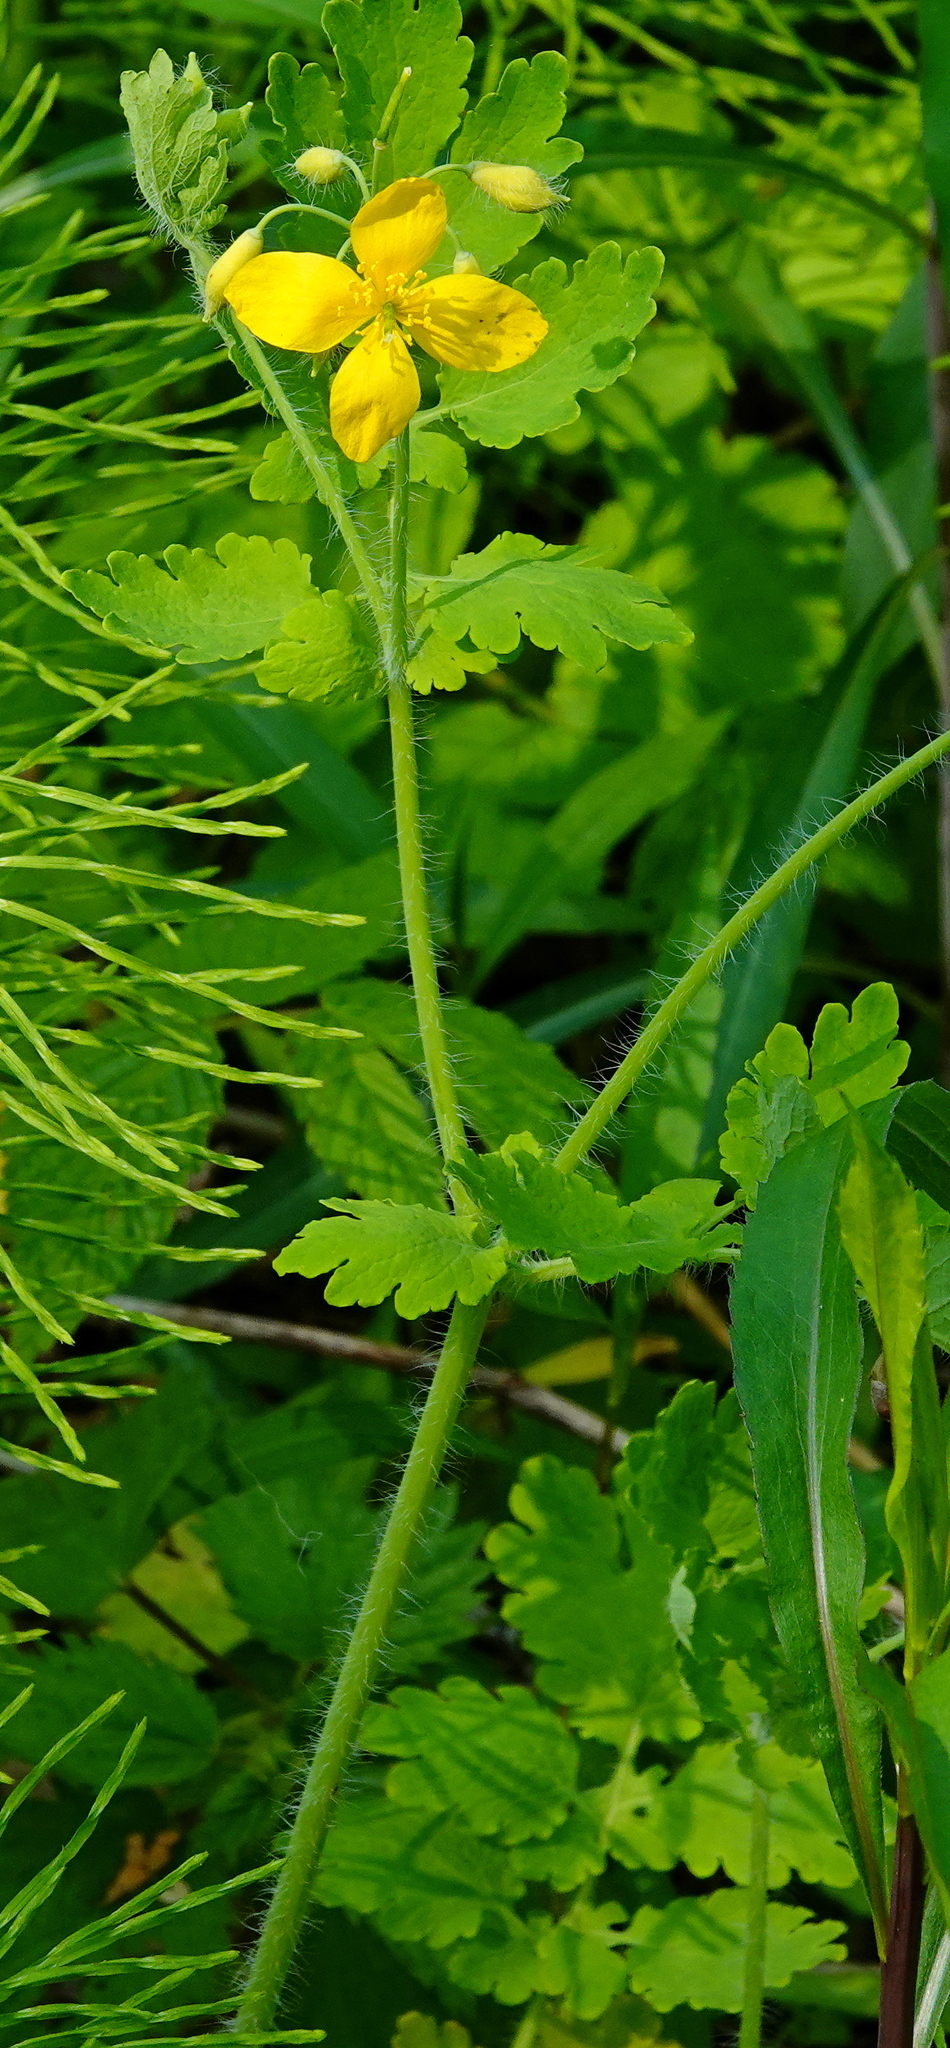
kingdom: Plantae
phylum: Tracheophyta
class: Magnoliopsida
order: Ranunculales
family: Papaveraceae
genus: Chelidonium
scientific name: Chelidonium majus
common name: Greater celandine
